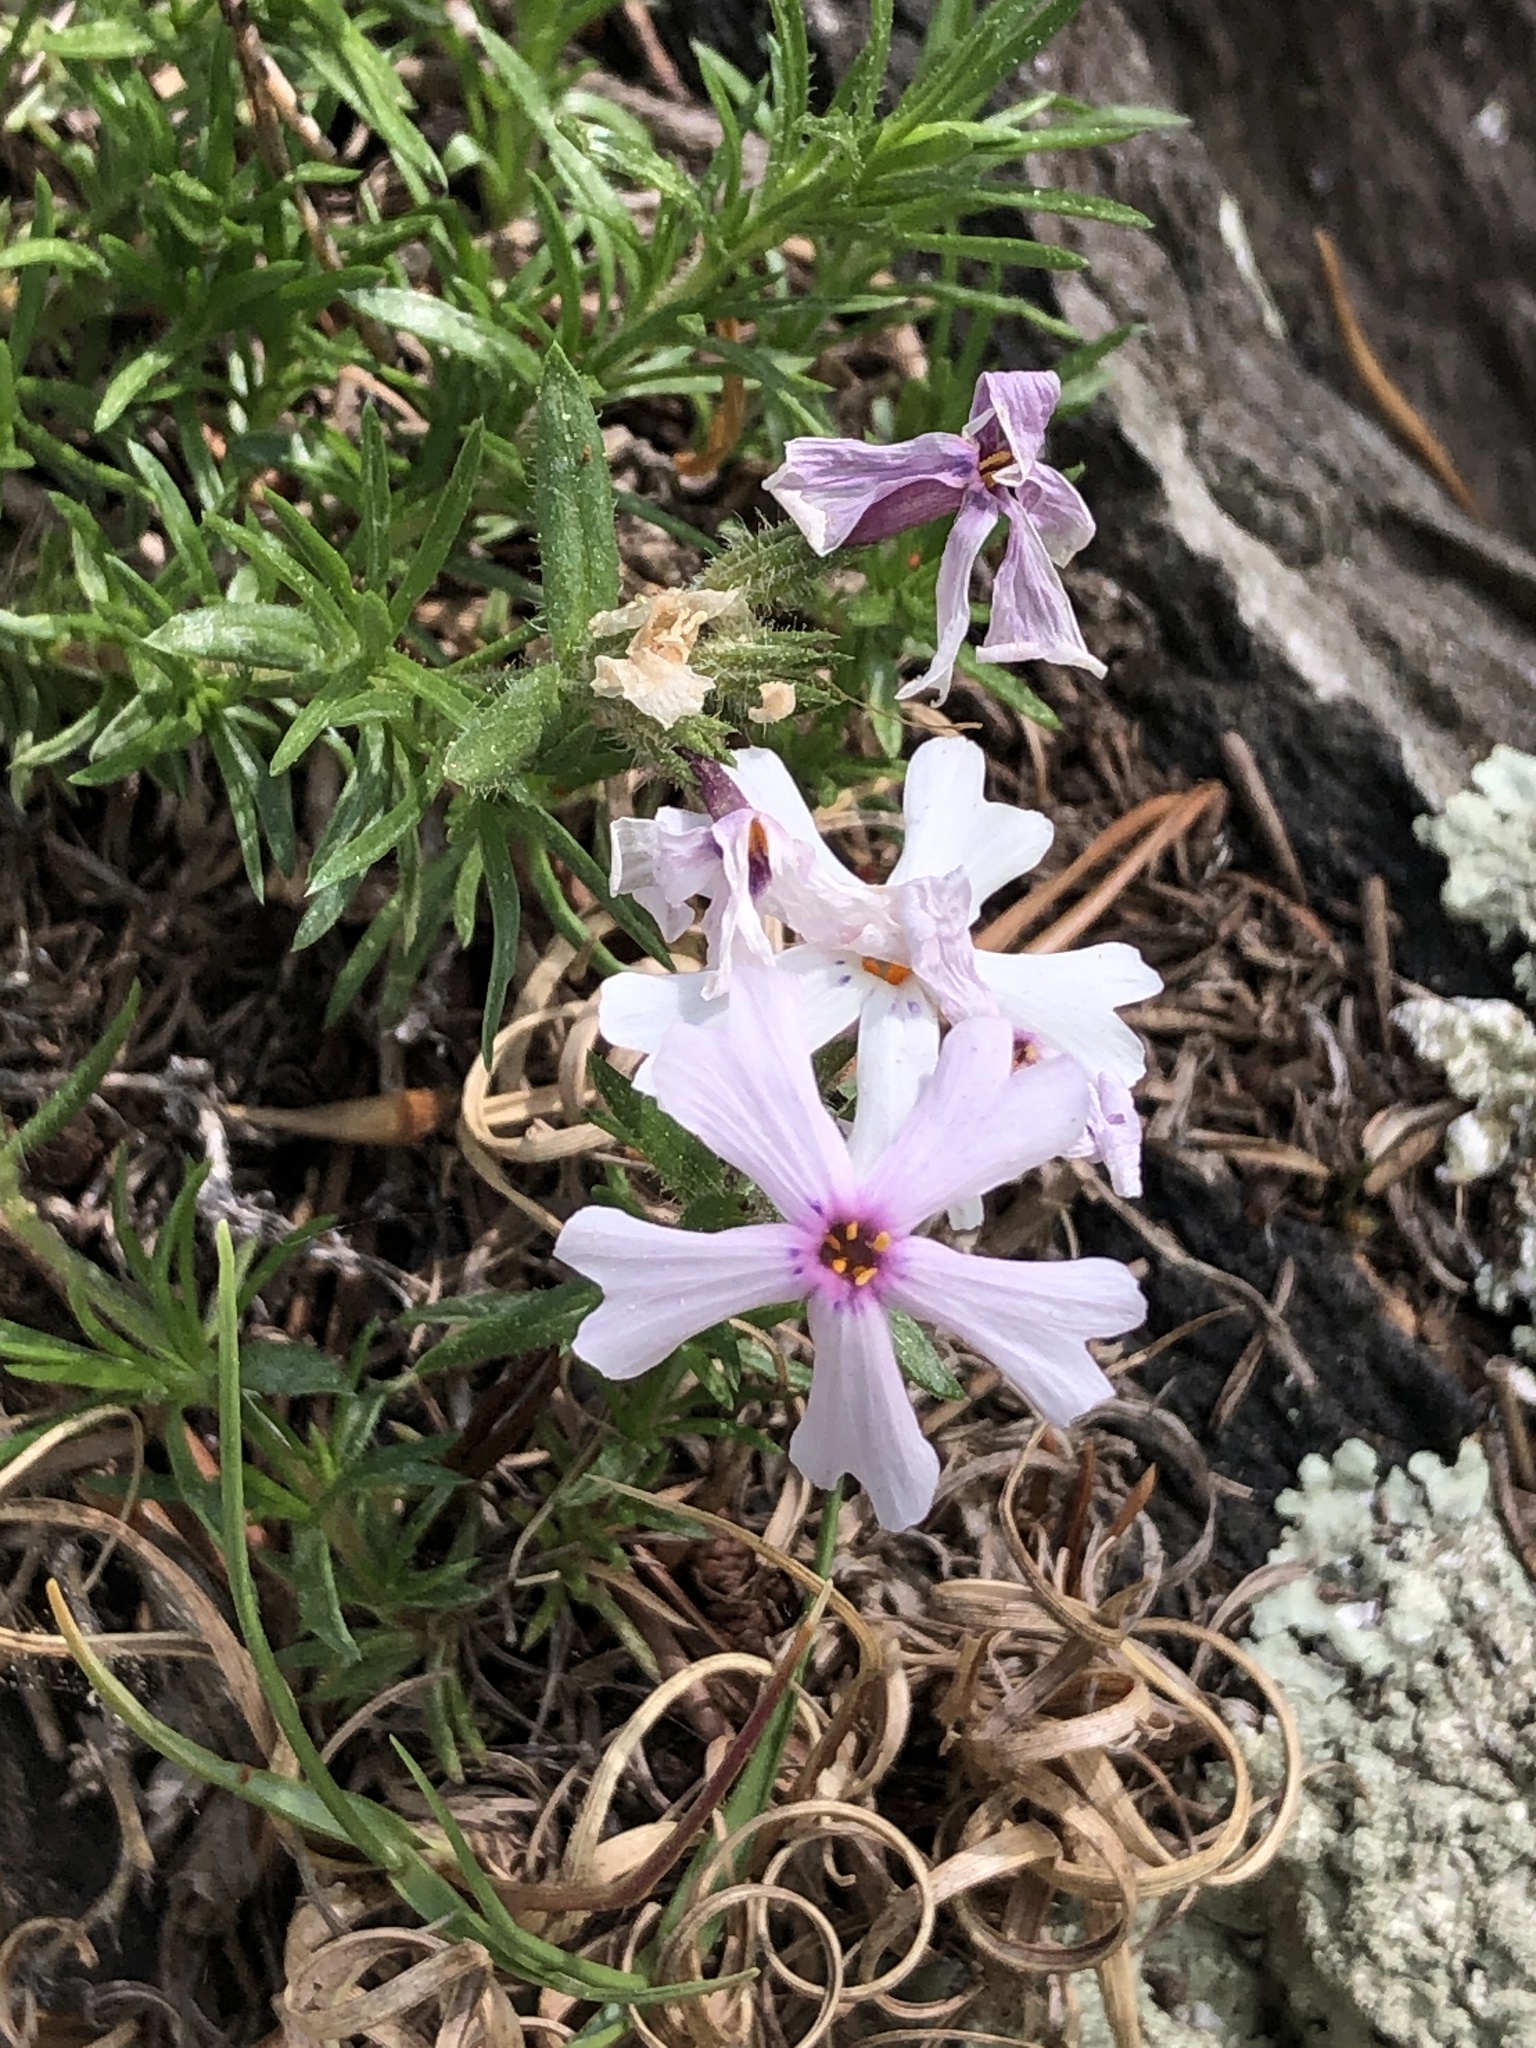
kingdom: Plantae
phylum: Tracheophyta
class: Magnoliopsida
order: Ericales
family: Polemoniaceae
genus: Phlox
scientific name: Phlox subulata
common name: Moss phlox
